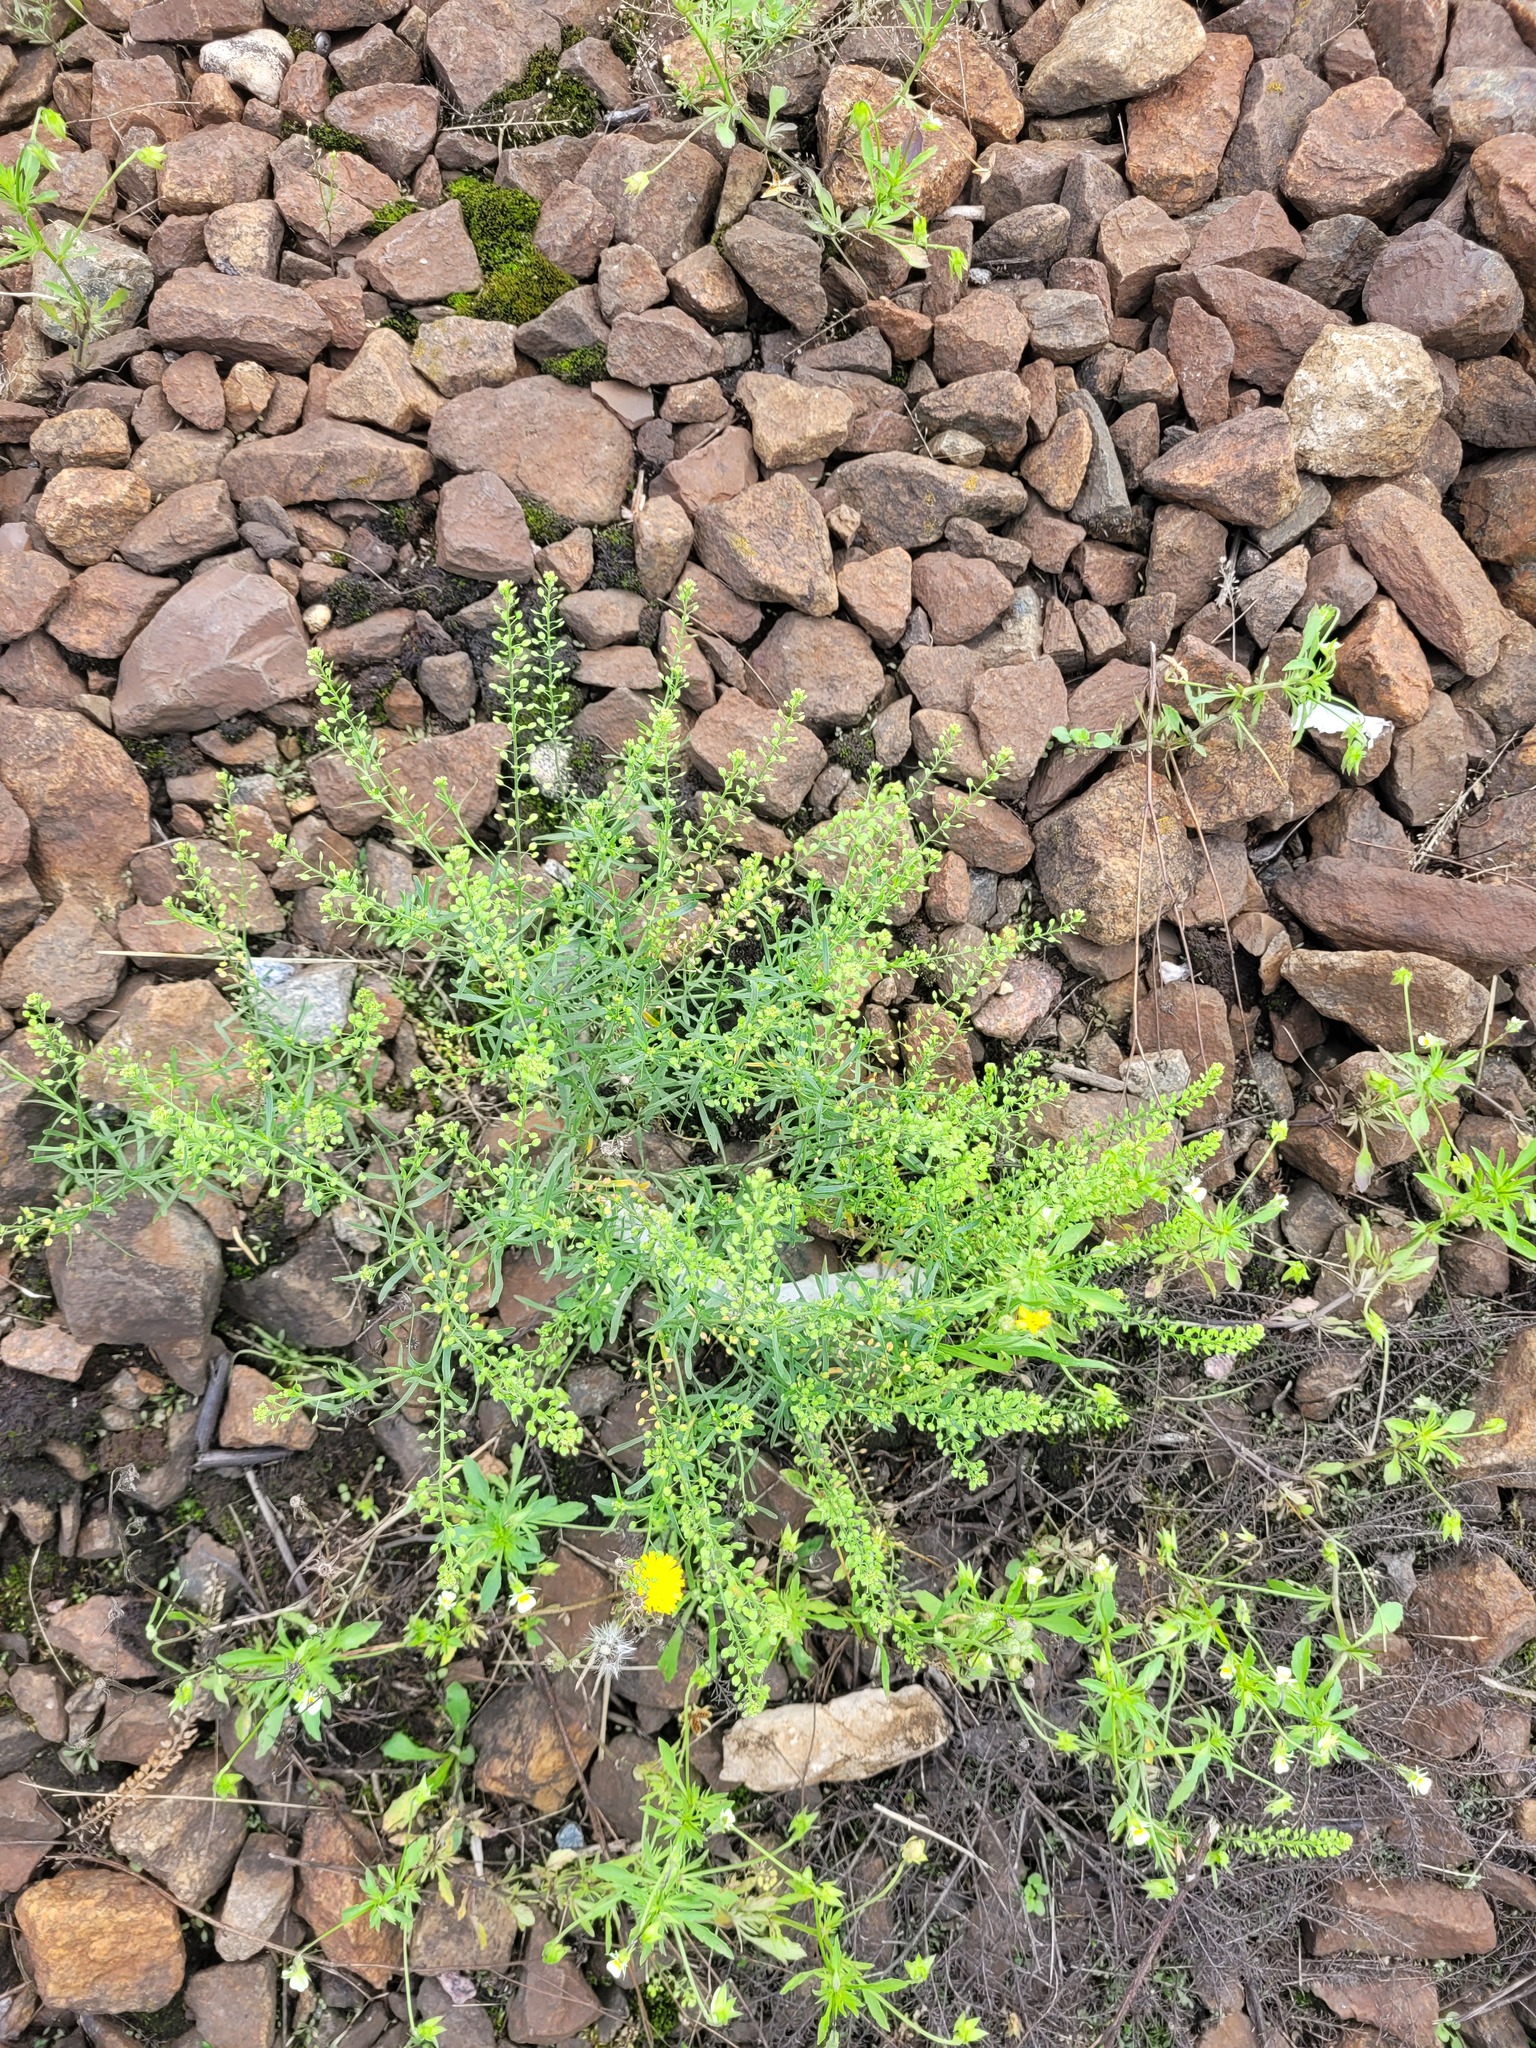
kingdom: Plantae
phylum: Tracheophyta
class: Magnoliopsida
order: Brassicales
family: Brassicaceae
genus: Lepidium
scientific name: Lepidium ruderale
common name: Narrow-leaved pepperwort
